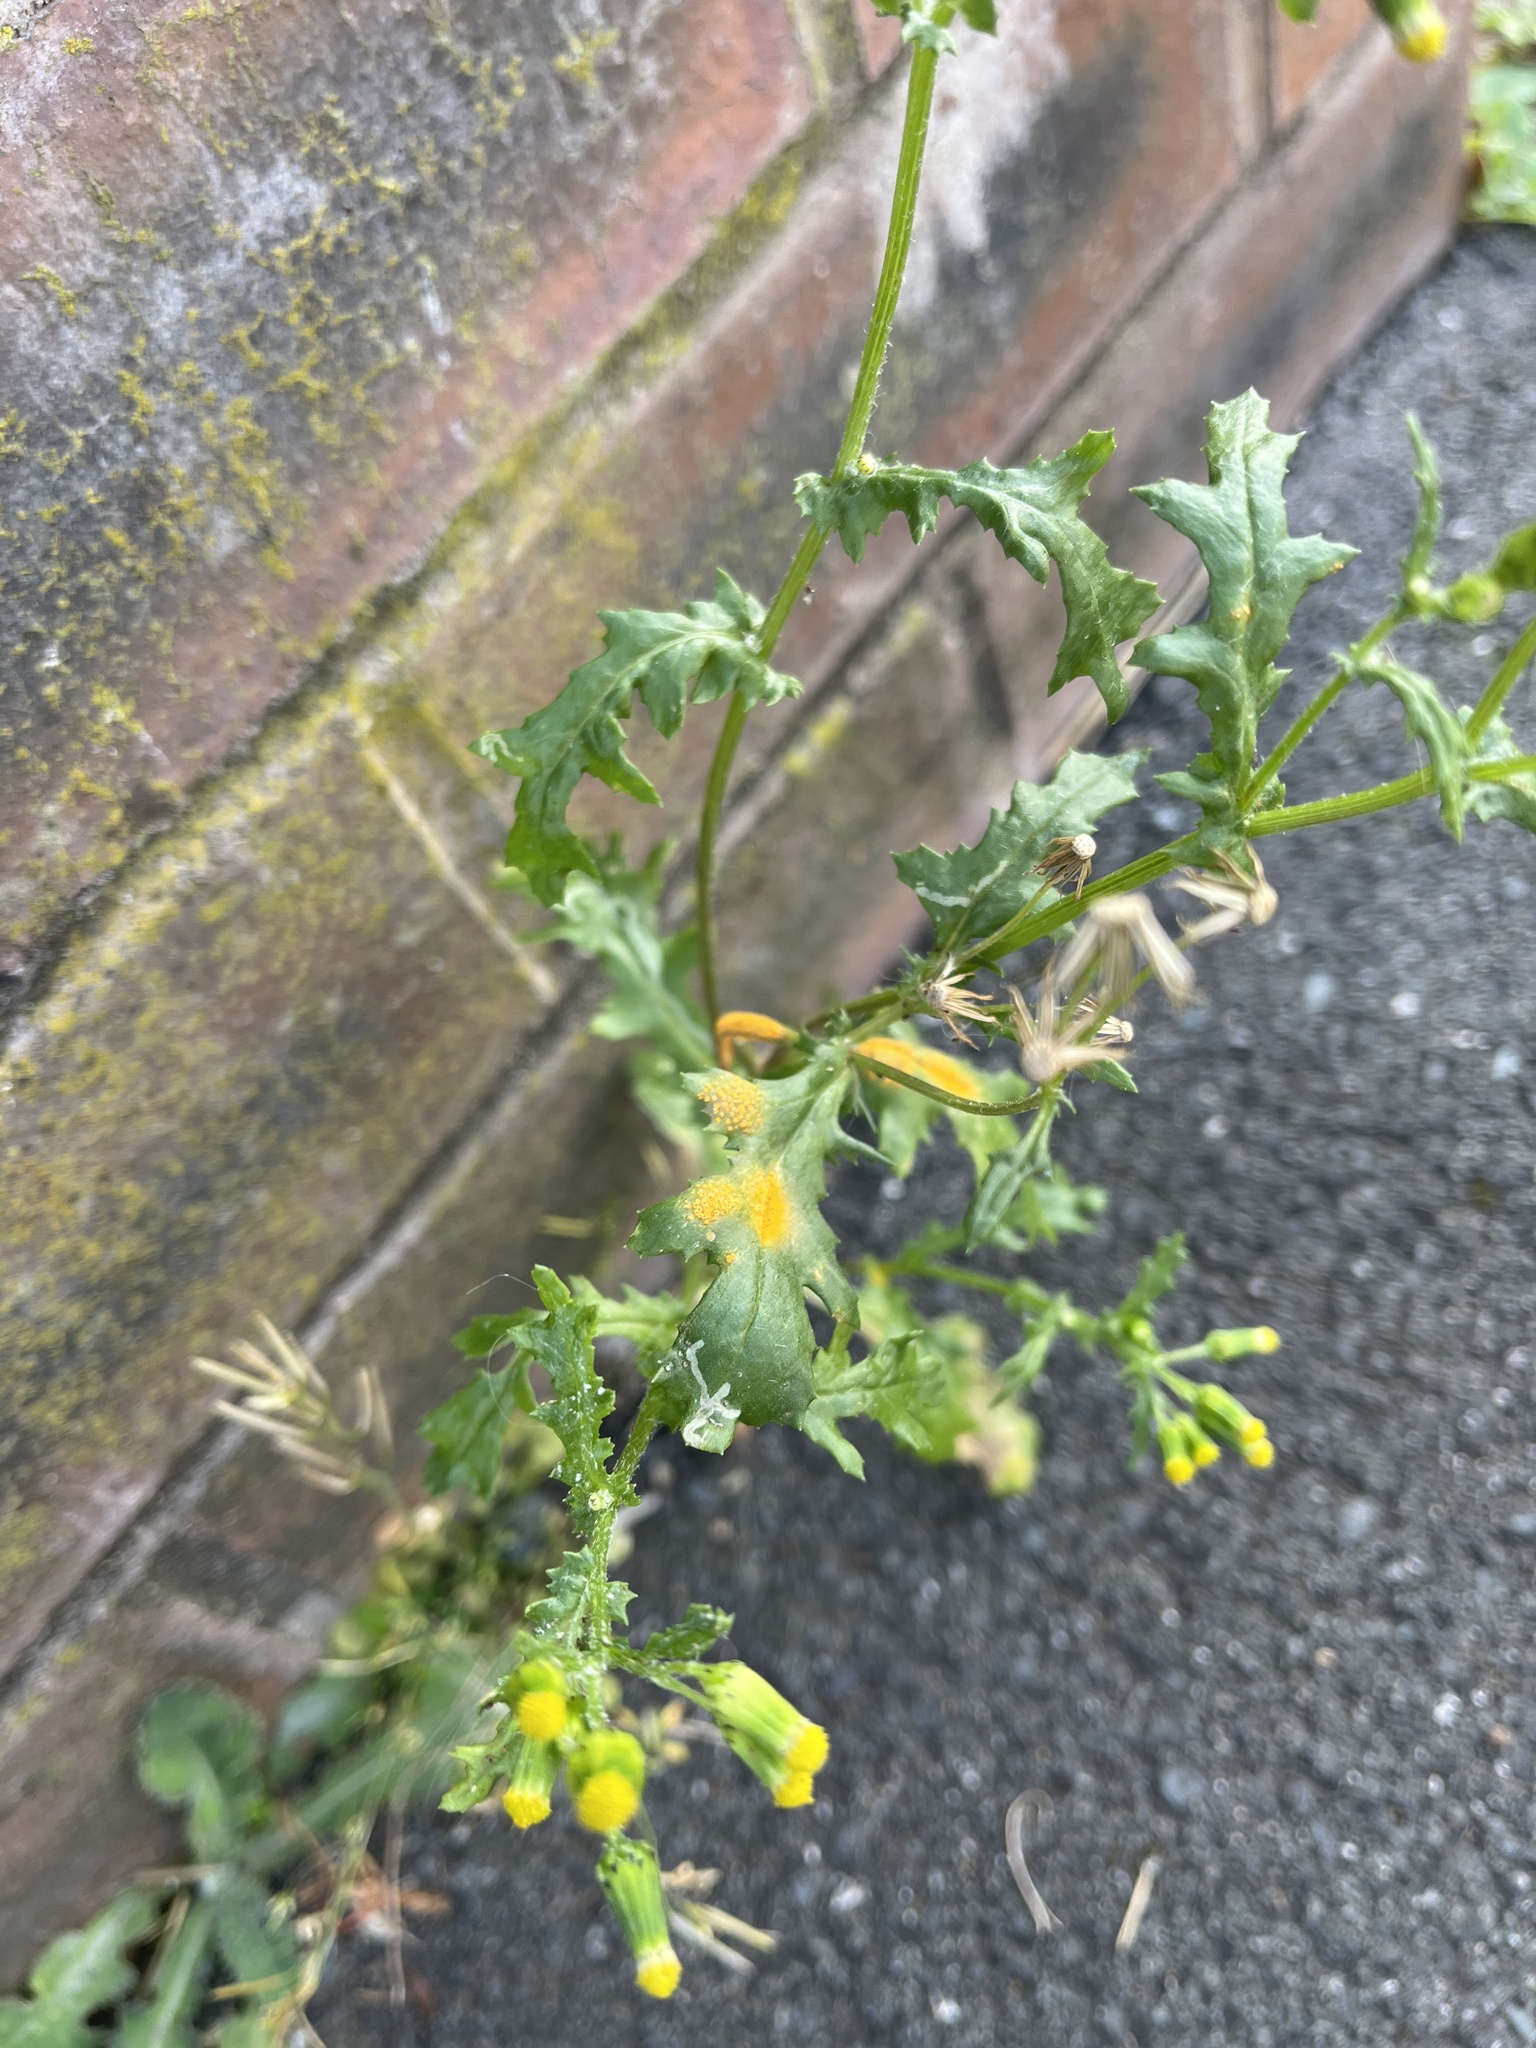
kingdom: Fungi
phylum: Basidiomycota
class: Pucciniomycetes
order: Pucciniales
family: Pucciniaceae
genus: Puccinia
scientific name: Puccinia lagenophorae
